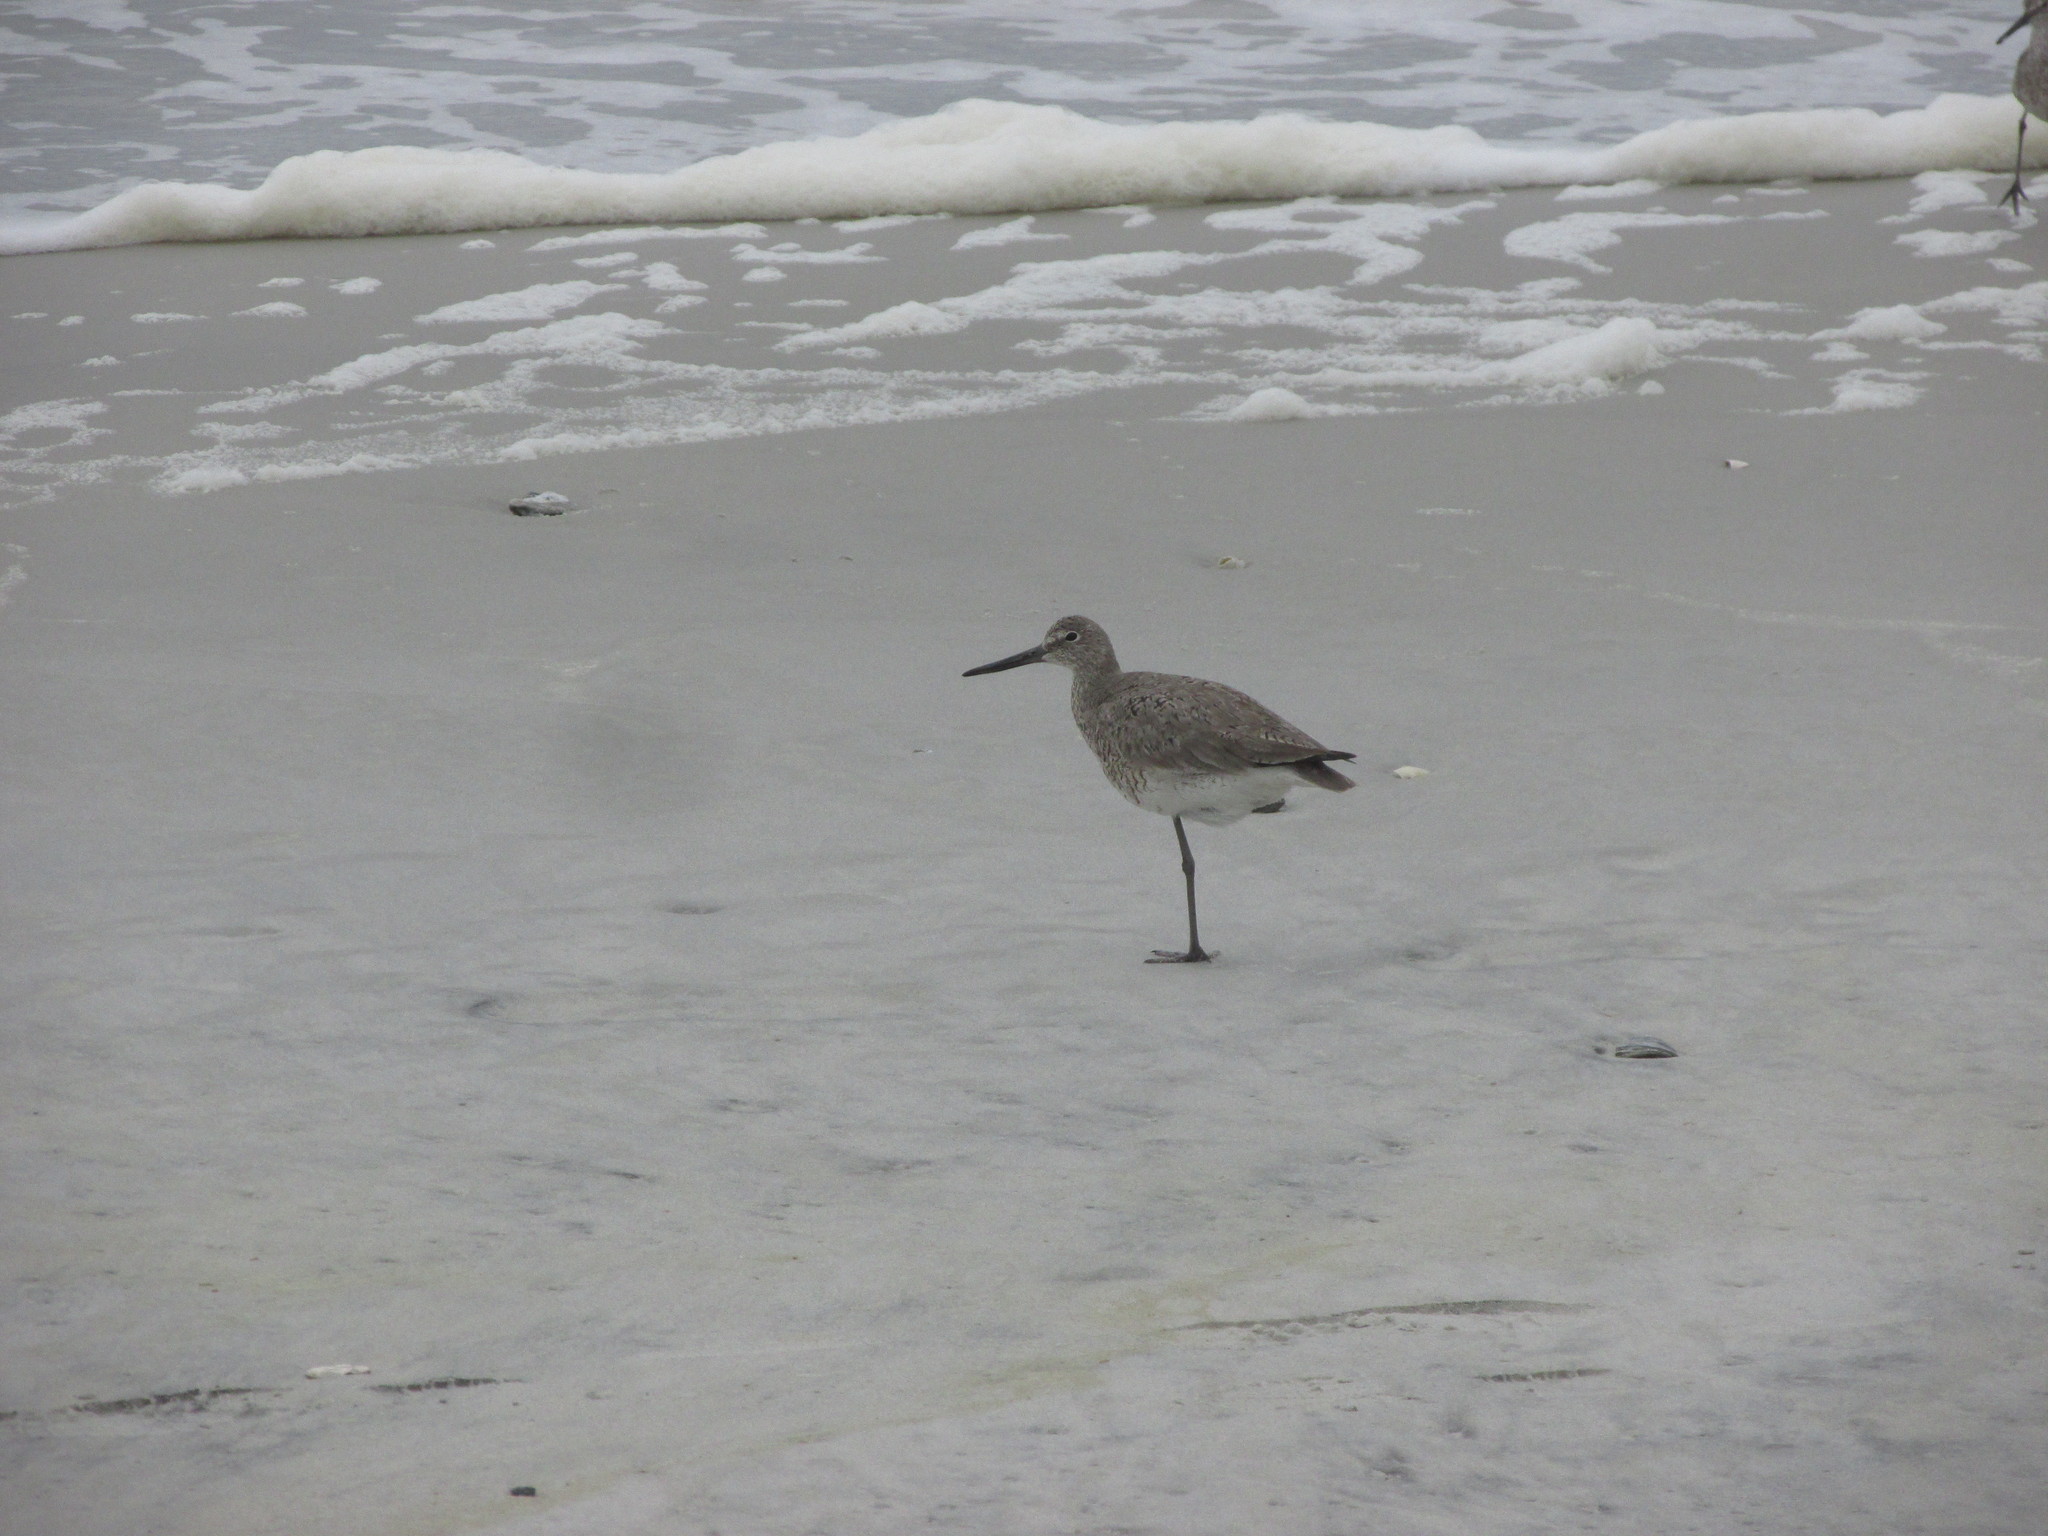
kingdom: Animalia
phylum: Chordata
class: Aves
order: Charadriiformes
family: Scolopacidae
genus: Tringa
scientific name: Tringa semipalmata
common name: Willet
